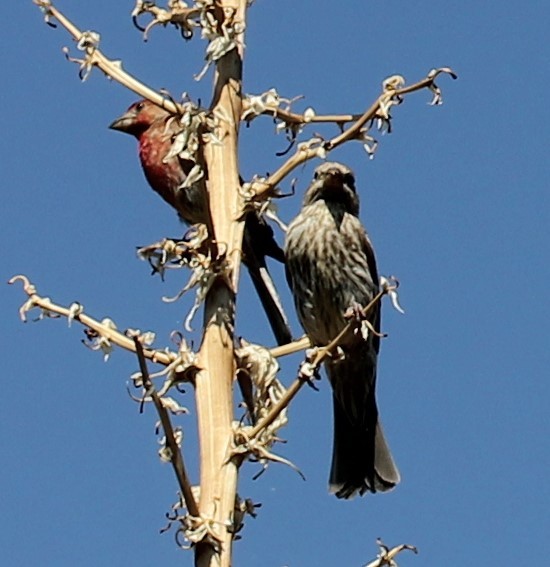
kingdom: Animalia
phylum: Chordata
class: Aves
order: Passeriformes
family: Fringillidae
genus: Haemorhous
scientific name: Haemorhous mexicanus
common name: House finch
